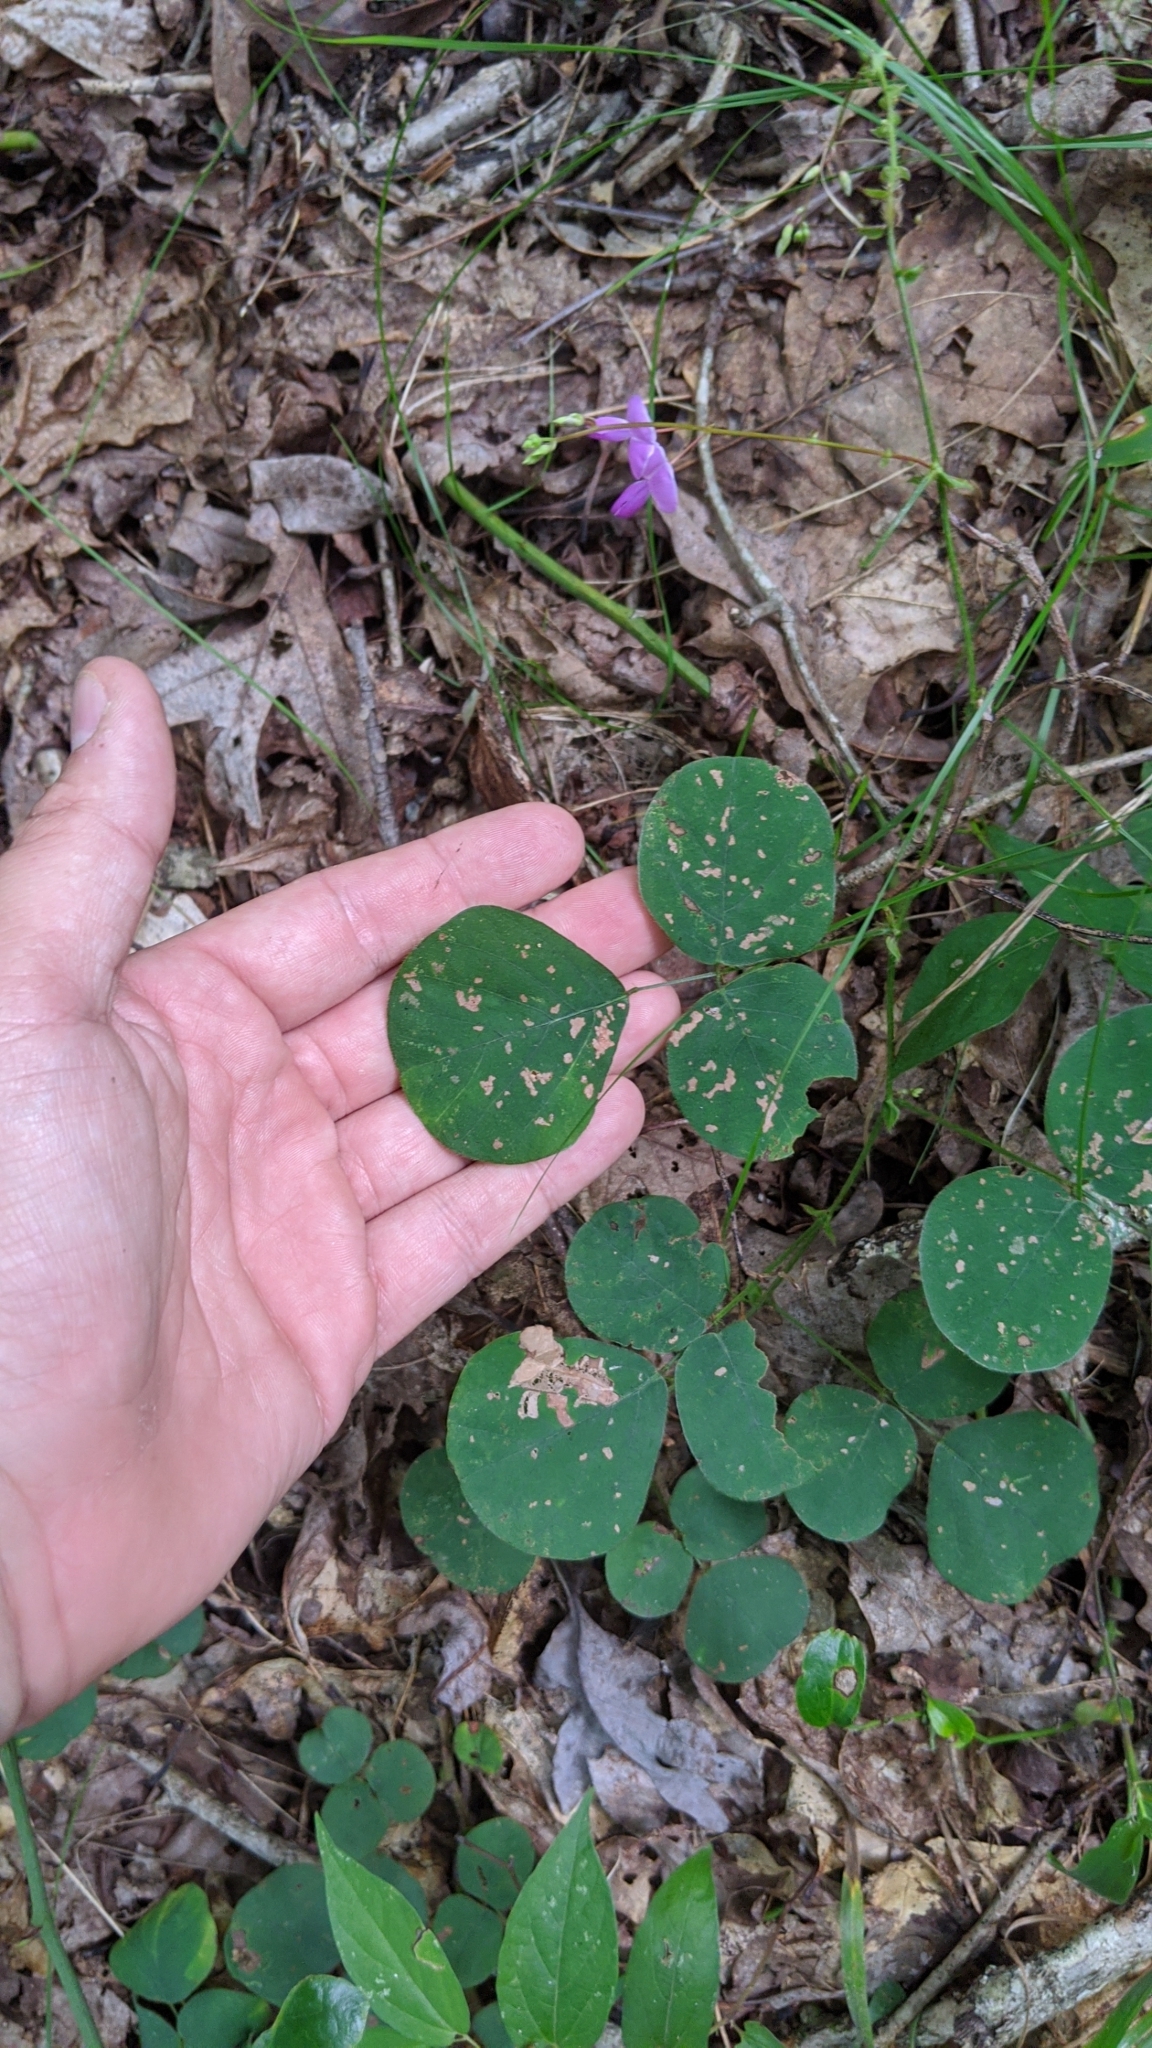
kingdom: Plantae
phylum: Tracheophyta
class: Magnoliopsida
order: Fabales
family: Fabaceae
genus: Desmodium
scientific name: Desmodium rotundifolium
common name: Dollarleaf
